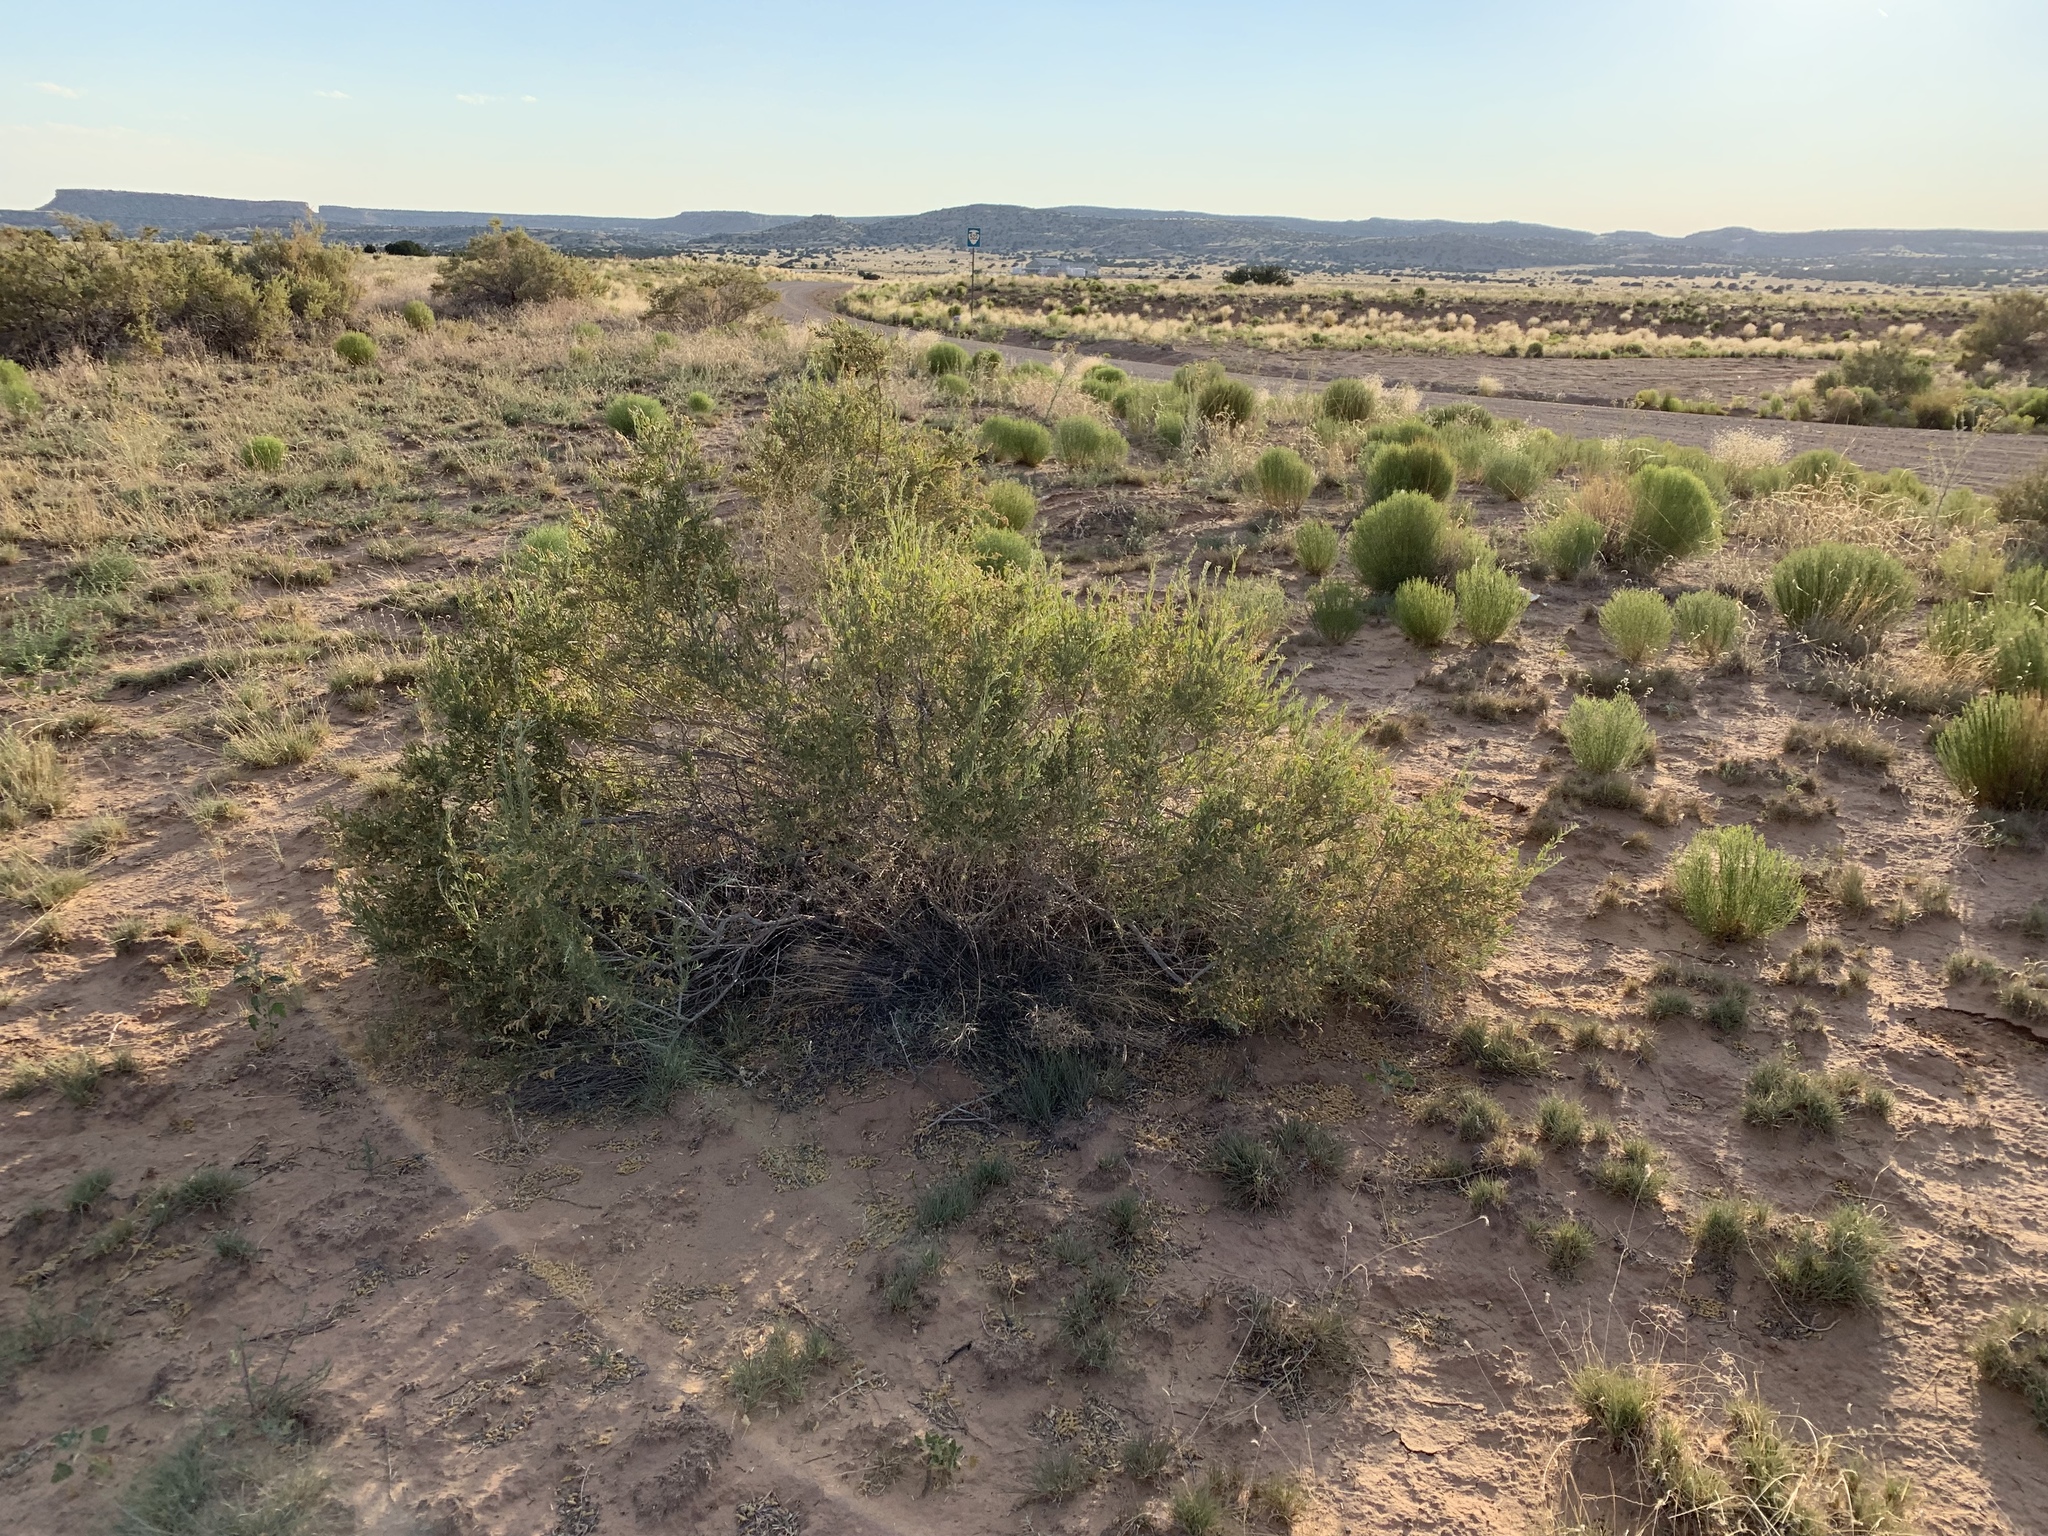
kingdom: Plantae
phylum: Tracheophyta
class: Magnoliopsida
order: Caryophyllales
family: Amaranthaceae
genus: Atriplex
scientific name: Atriplex canescens
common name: Four-wing saltbush
